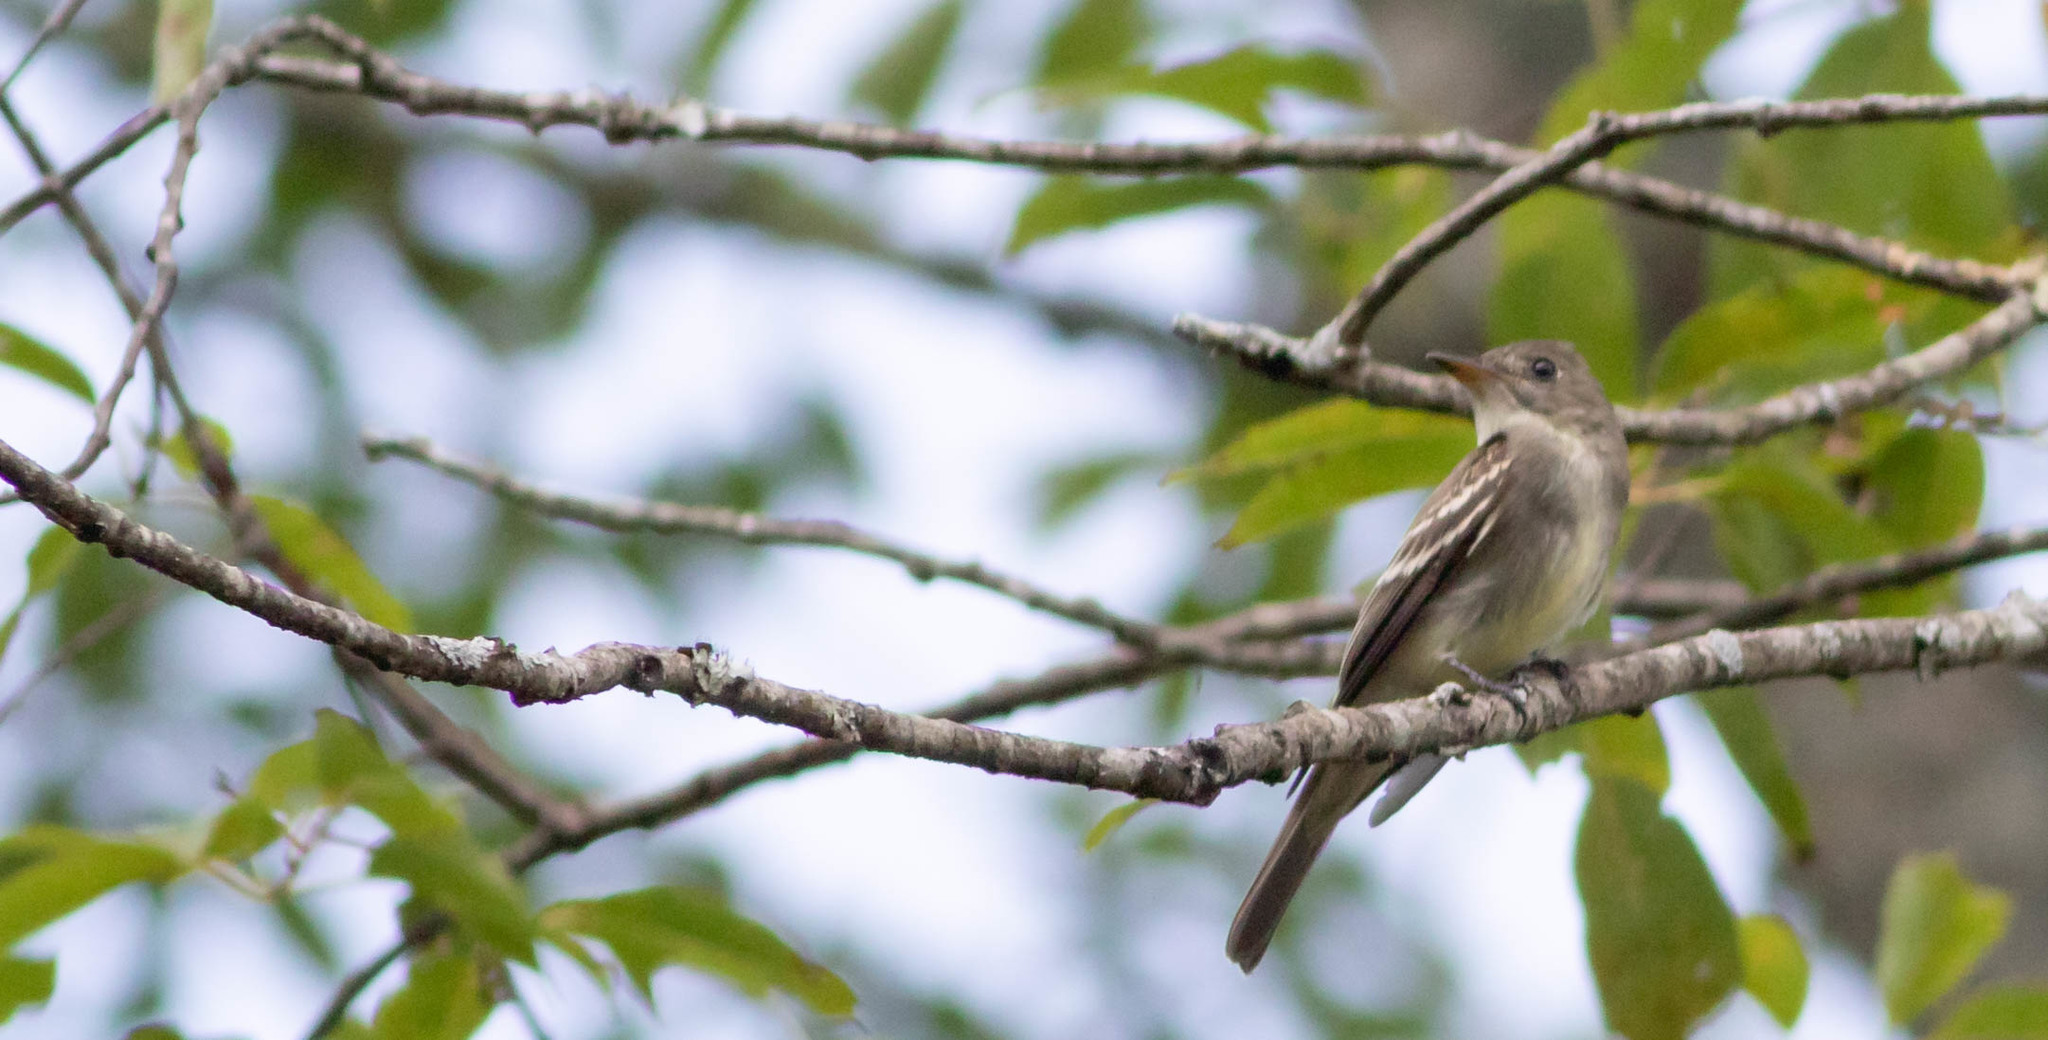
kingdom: Animalia
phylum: Chordata
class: Aves
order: Passeriformes
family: Tyrannidae
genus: Contopus
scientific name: Contopus virens
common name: Eastern wood-pewee
